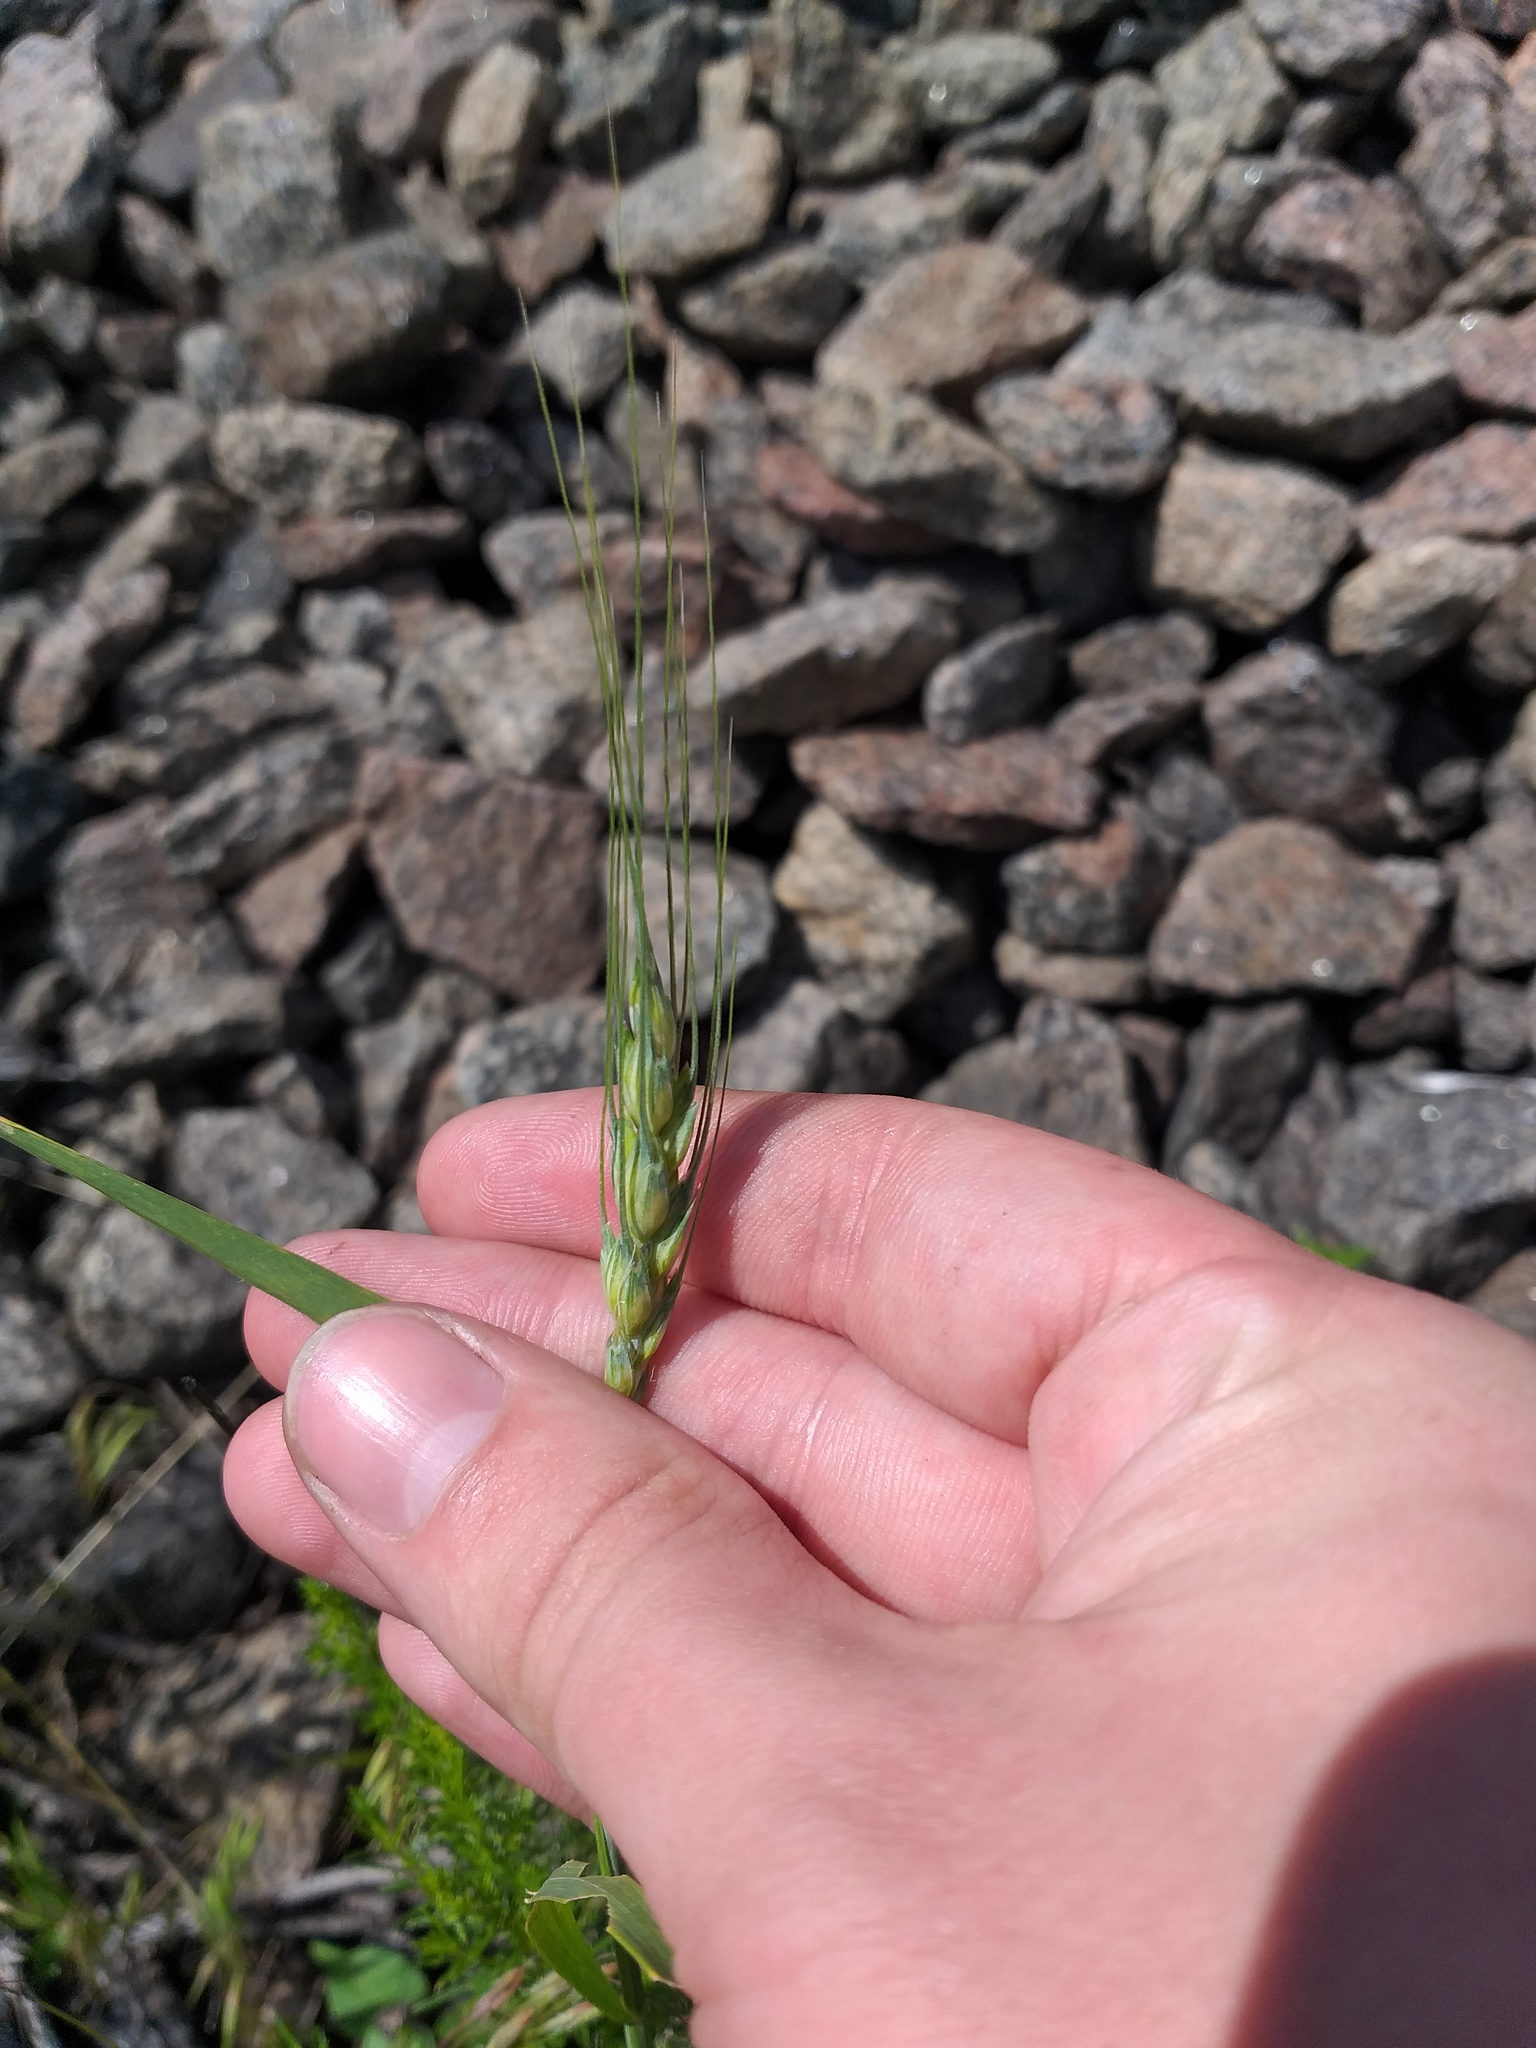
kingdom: Plantae
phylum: Tracheophyta
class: Liliopsida
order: Poales
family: Poaceae
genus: Triticum
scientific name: Triticum aestivum
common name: Common wheat
